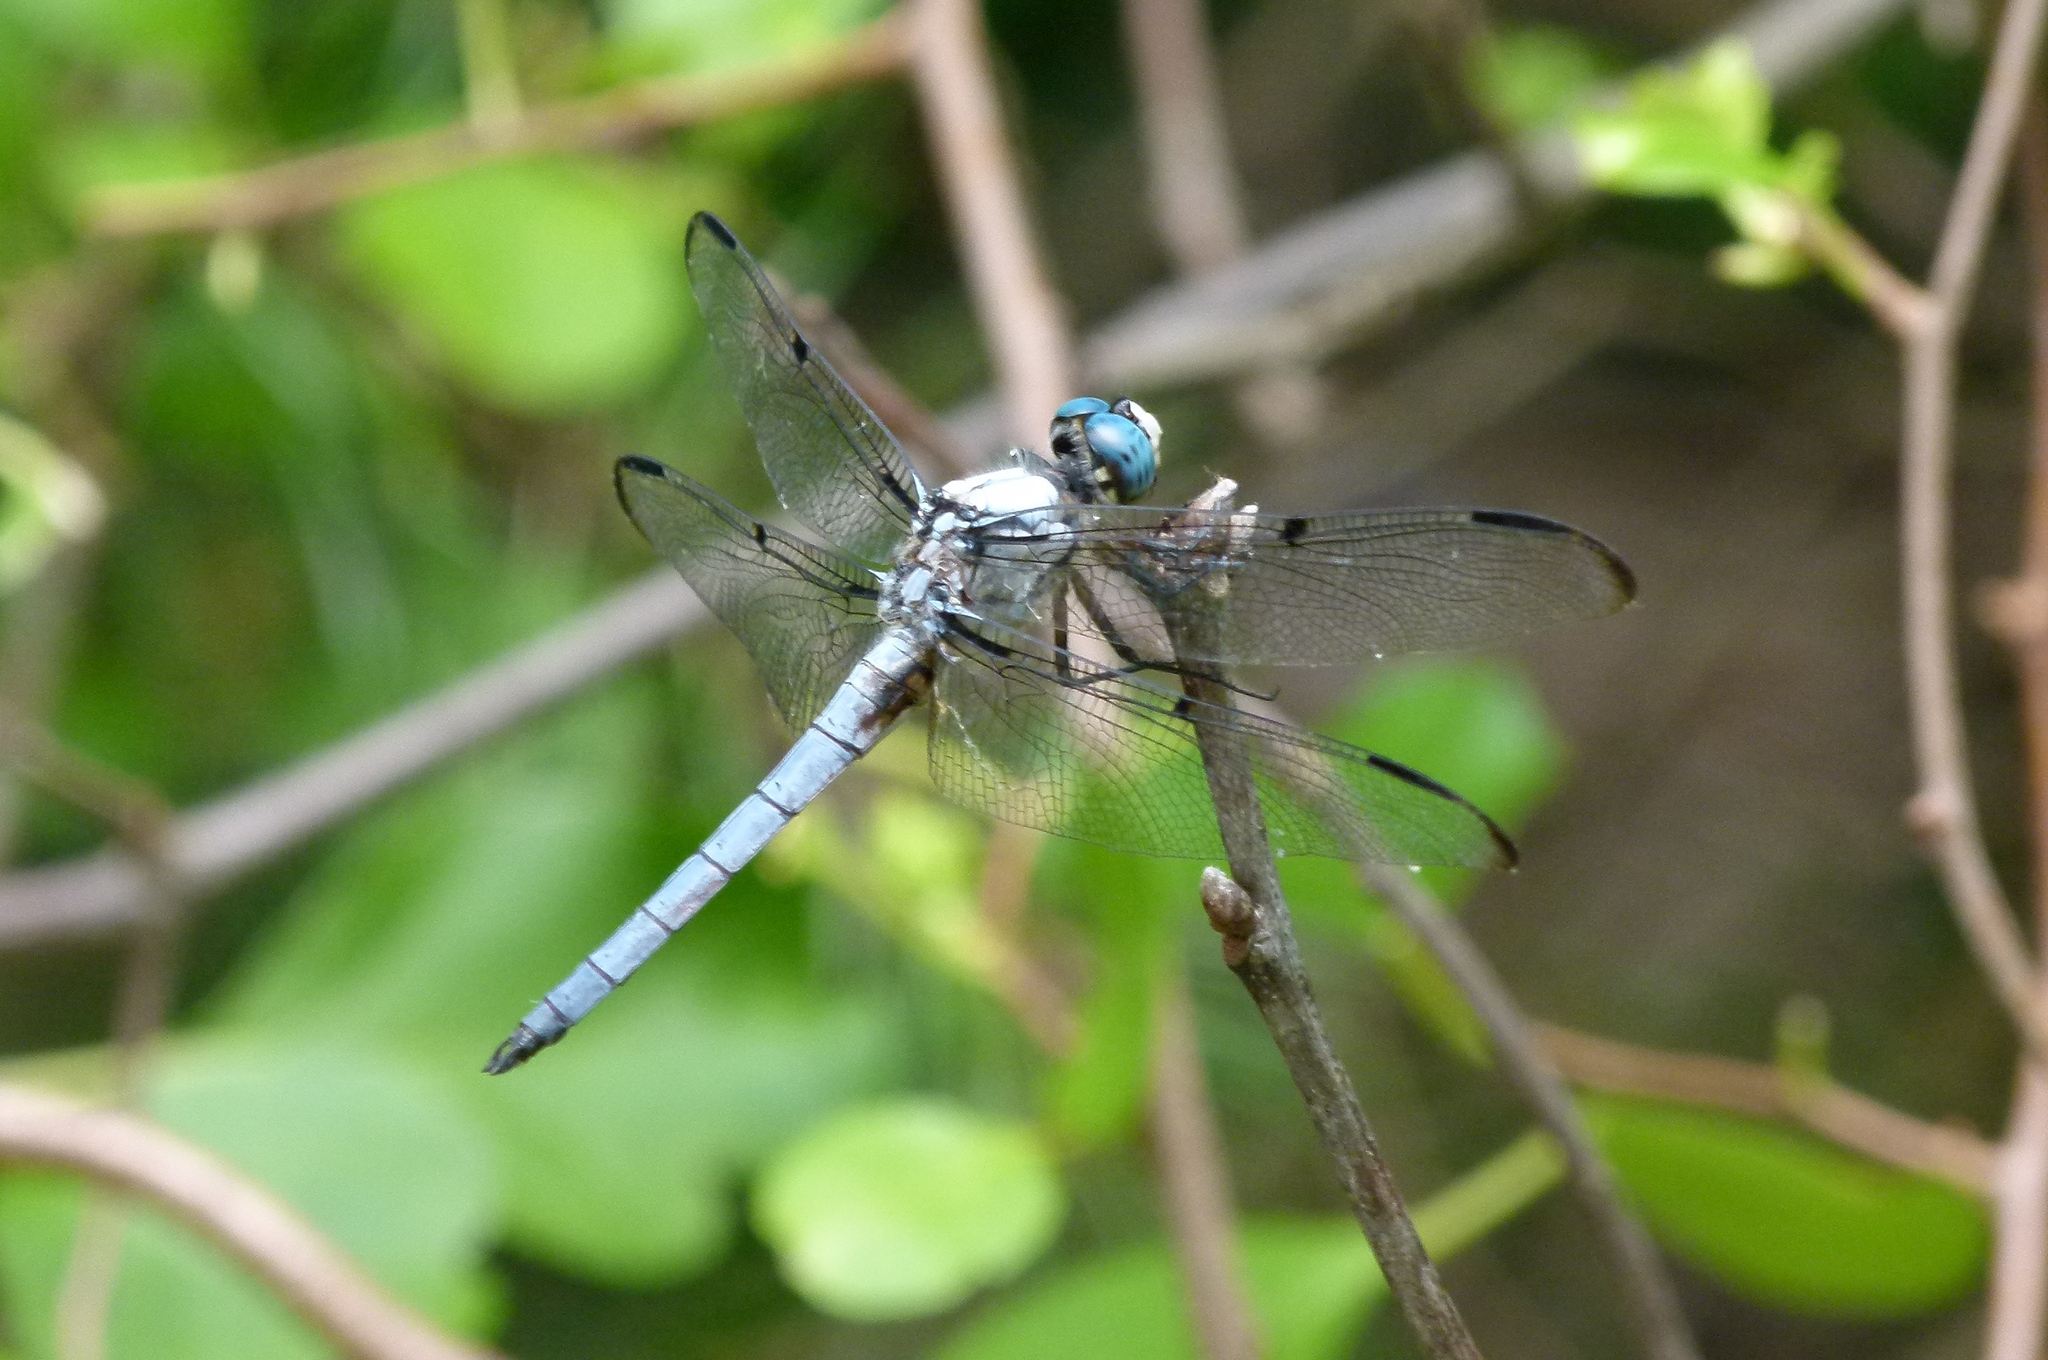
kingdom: Animalia
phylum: Arthropoda
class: Insecta
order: Odonata
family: Libellulidae
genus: Libellula
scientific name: Libellula vibrans
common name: Great blue skimmer
